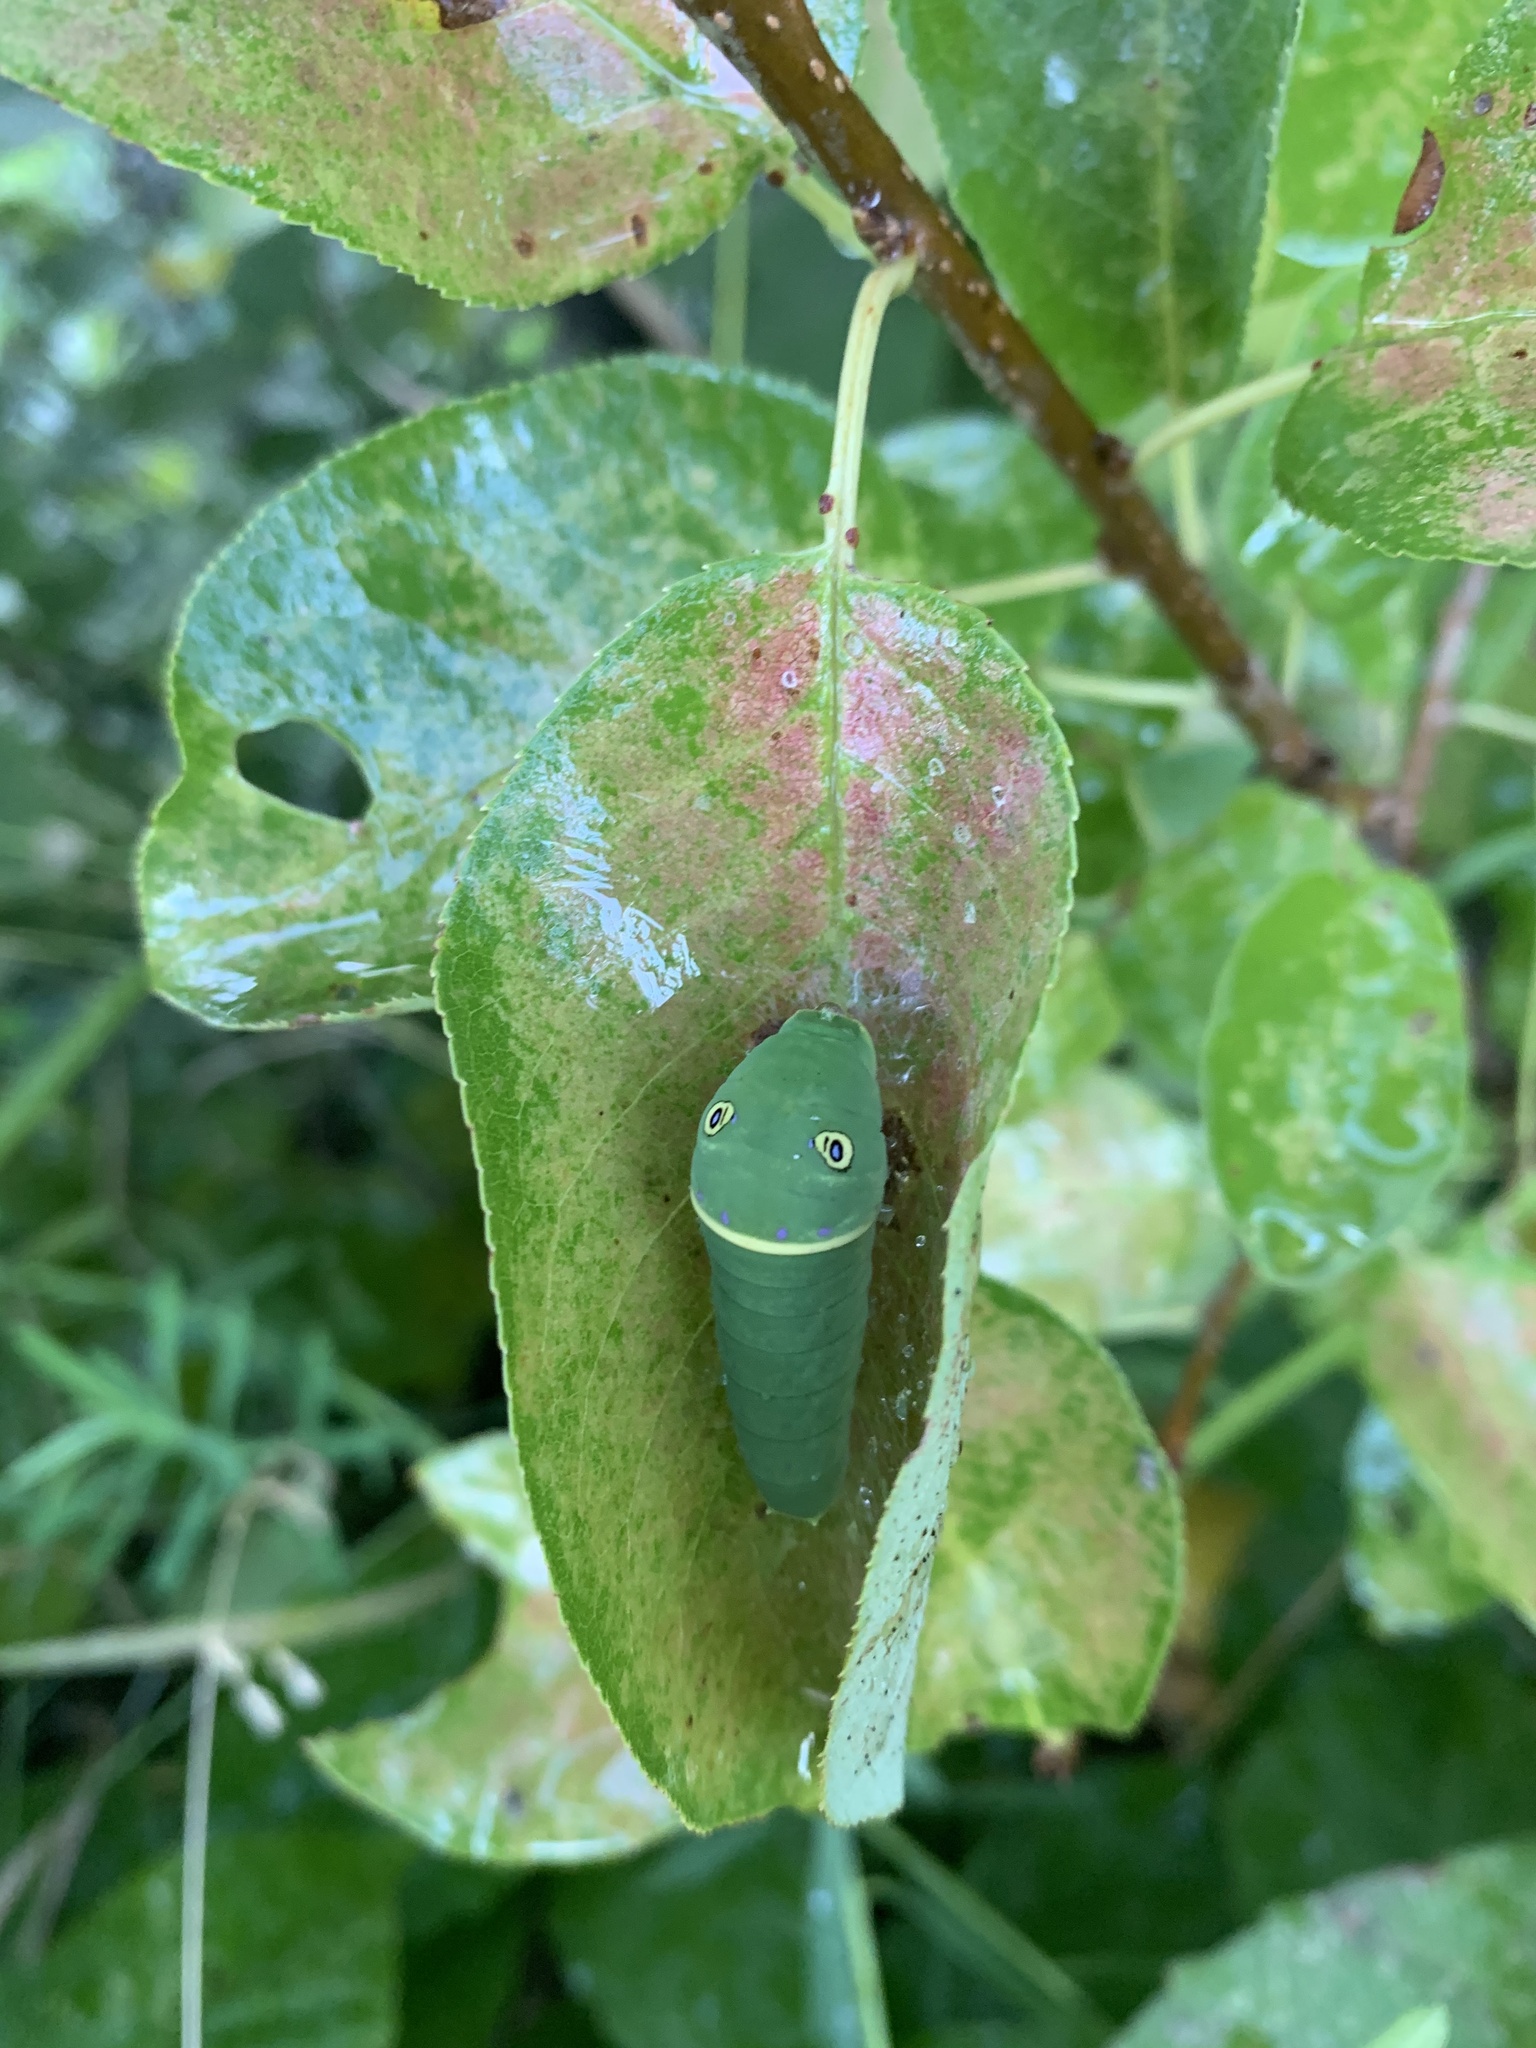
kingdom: Animalia
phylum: Arthropoda
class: Insecta
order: Lepidoptera
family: Papilionidae
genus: Papilio
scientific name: Papilio canadensis
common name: Canadian tiger swallowtail
